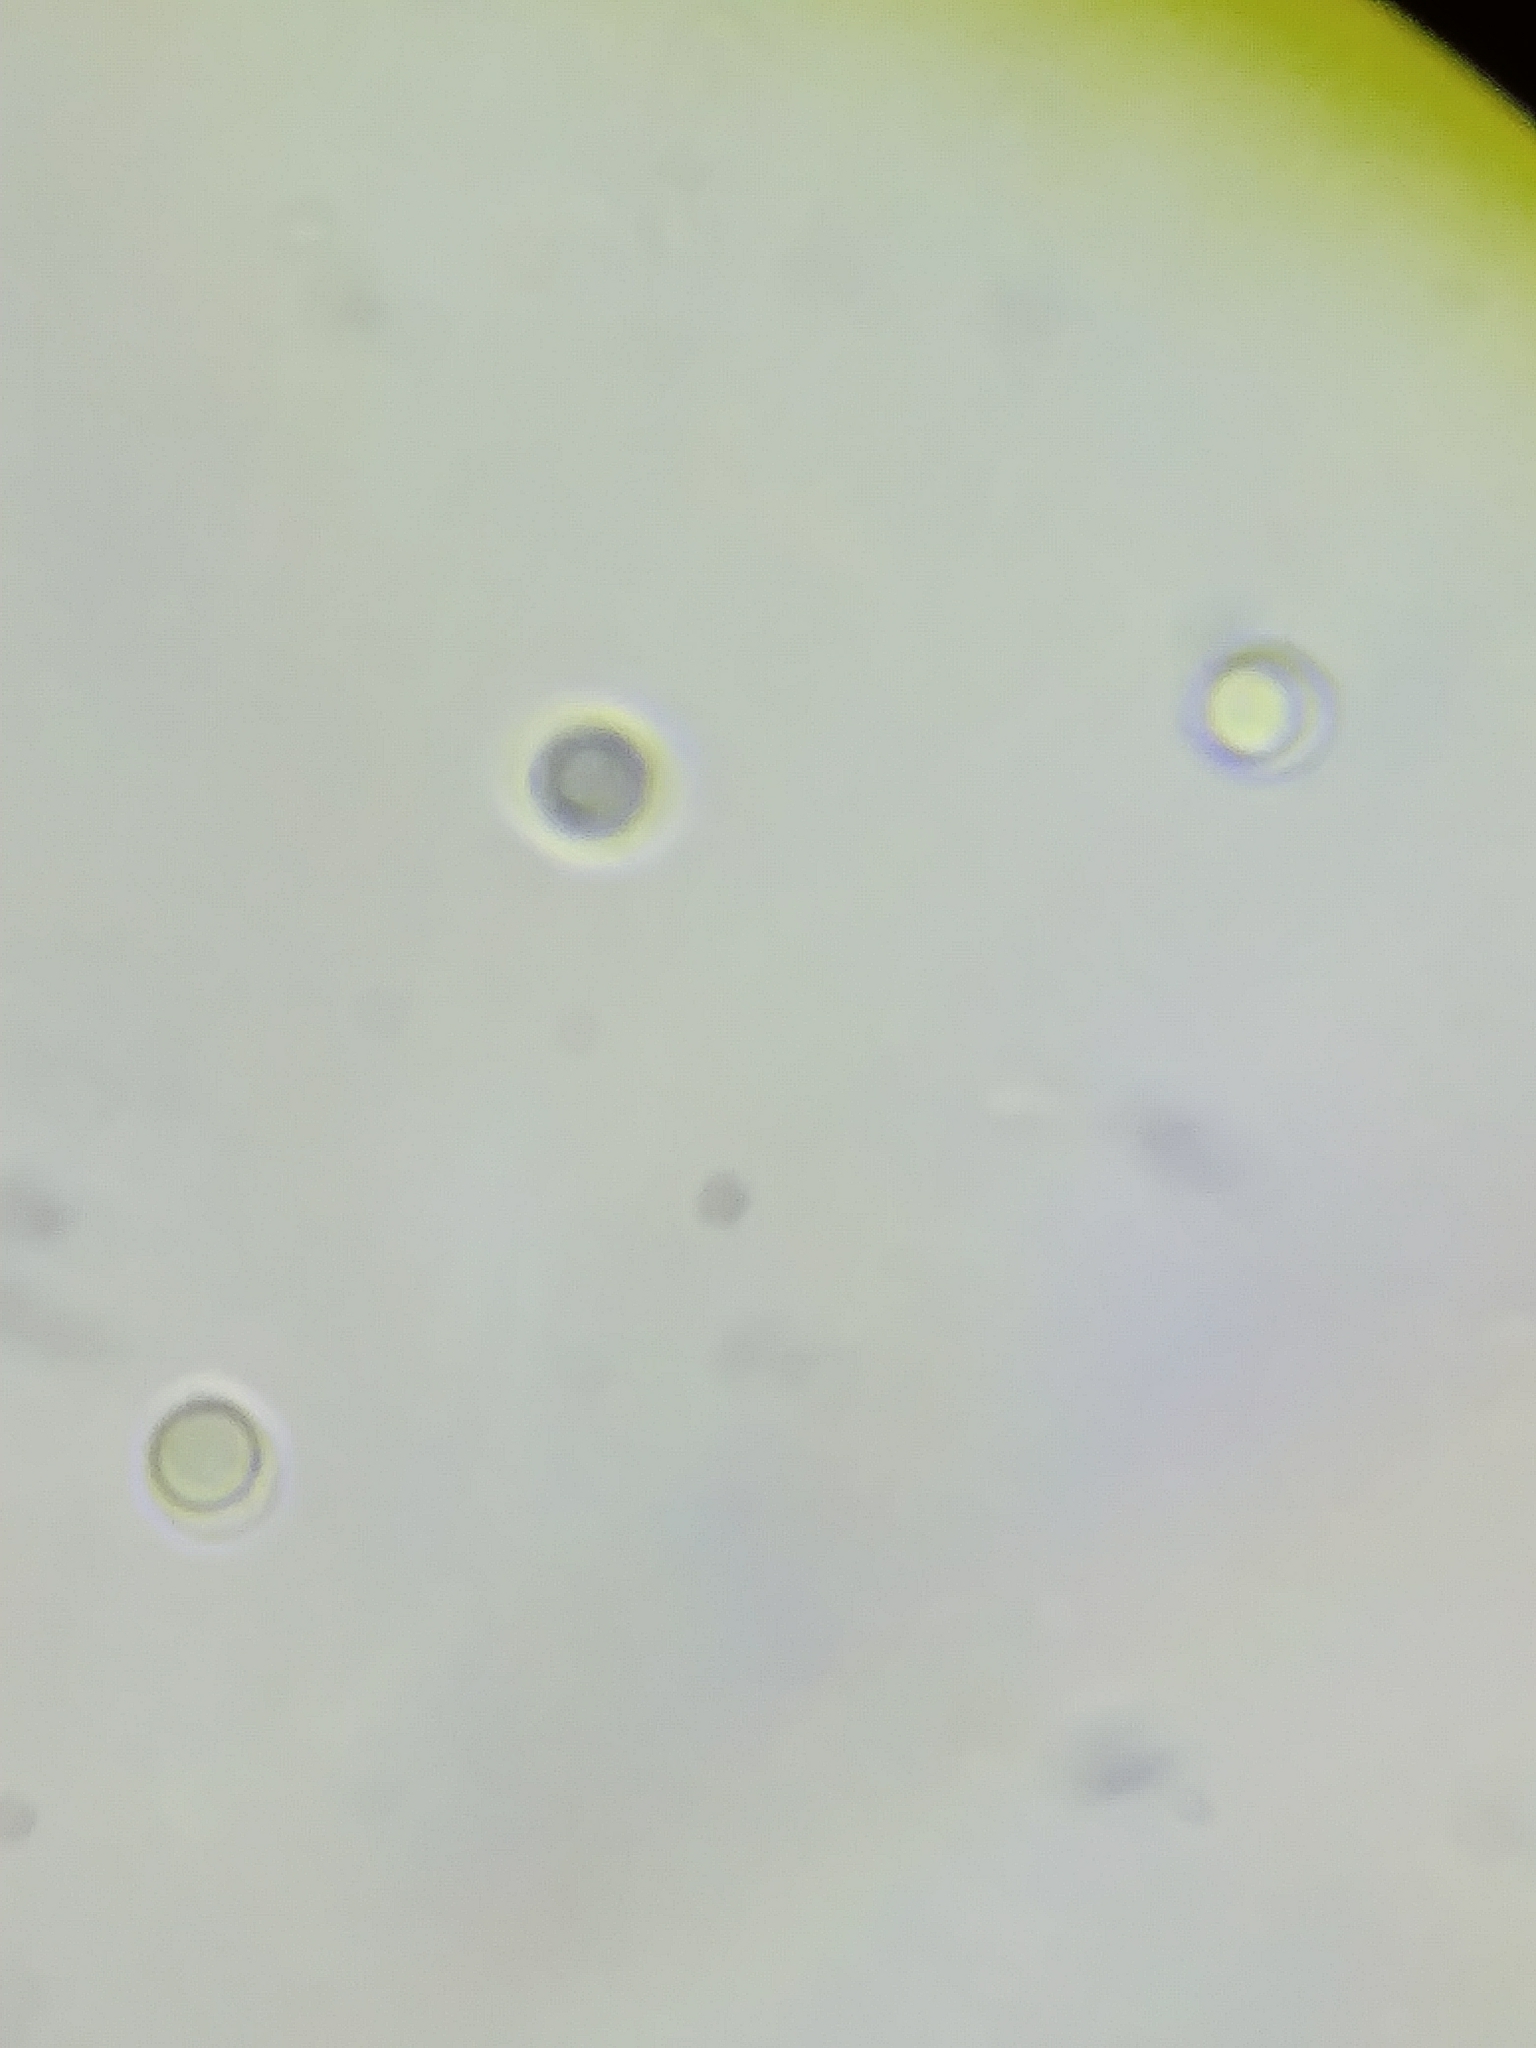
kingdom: Fungi
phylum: Basidiomycota
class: Agaricomycetes
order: Polyporales
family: Meripilaceae
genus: Rigidoporus
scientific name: Rigidoporus crocatus
